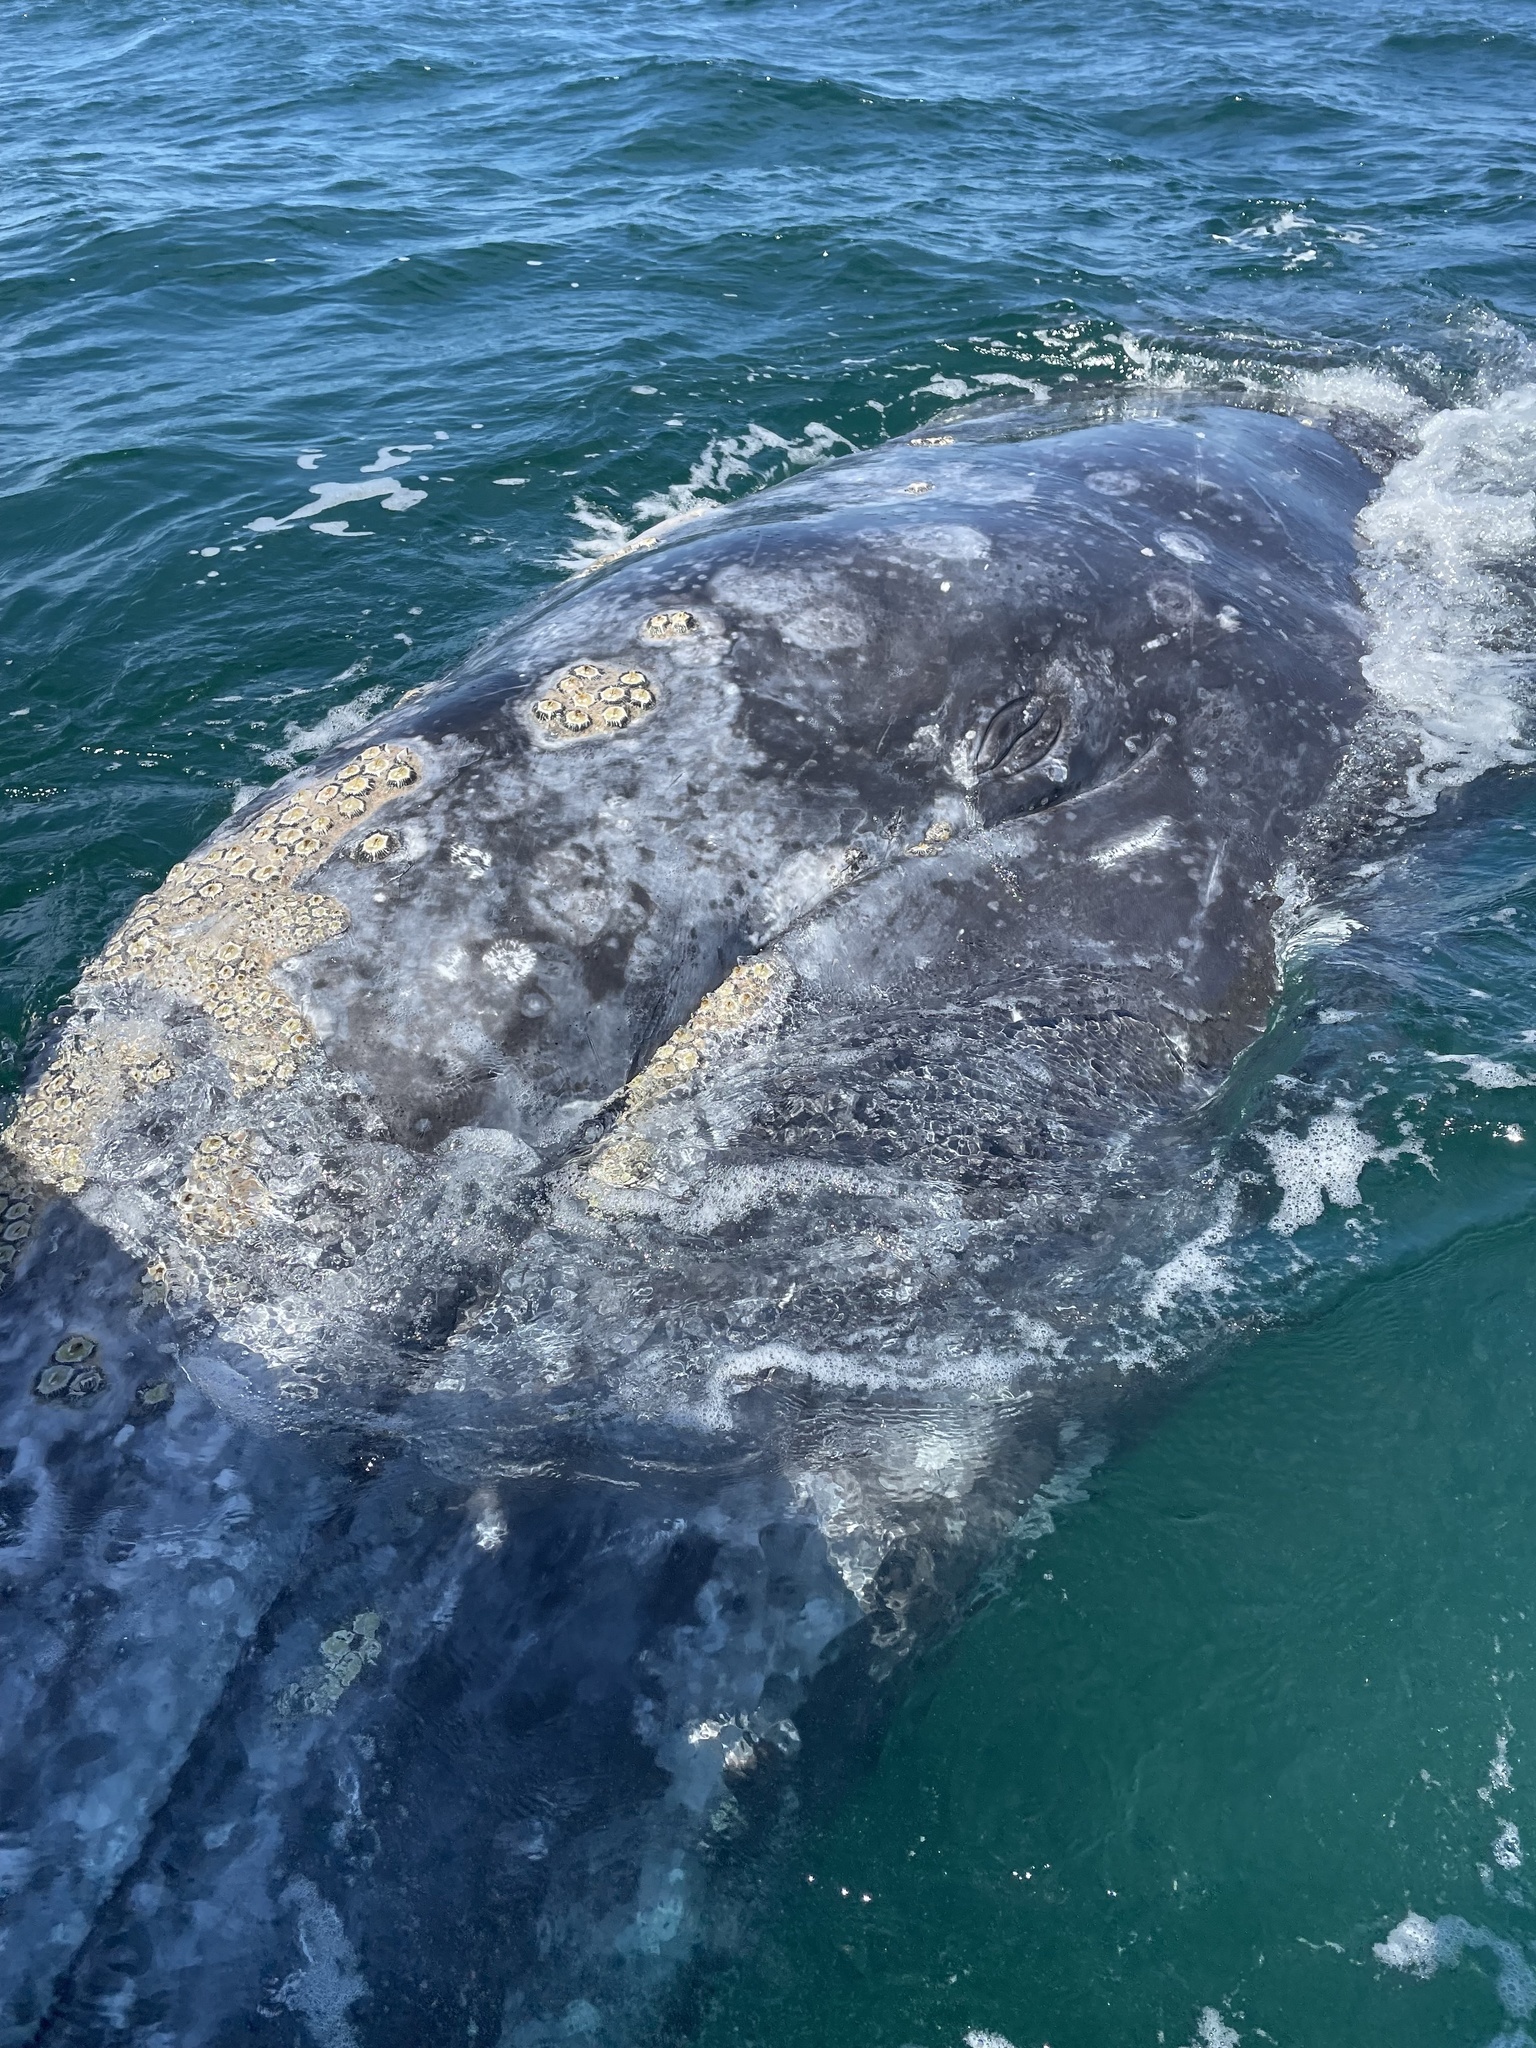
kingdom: Animalia
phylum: Chordata
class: Mammalia
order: Cetacea
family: Eschrichtiidae
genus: Eschrichtius
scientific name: Eschrichtius robustus
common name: Gray whale
